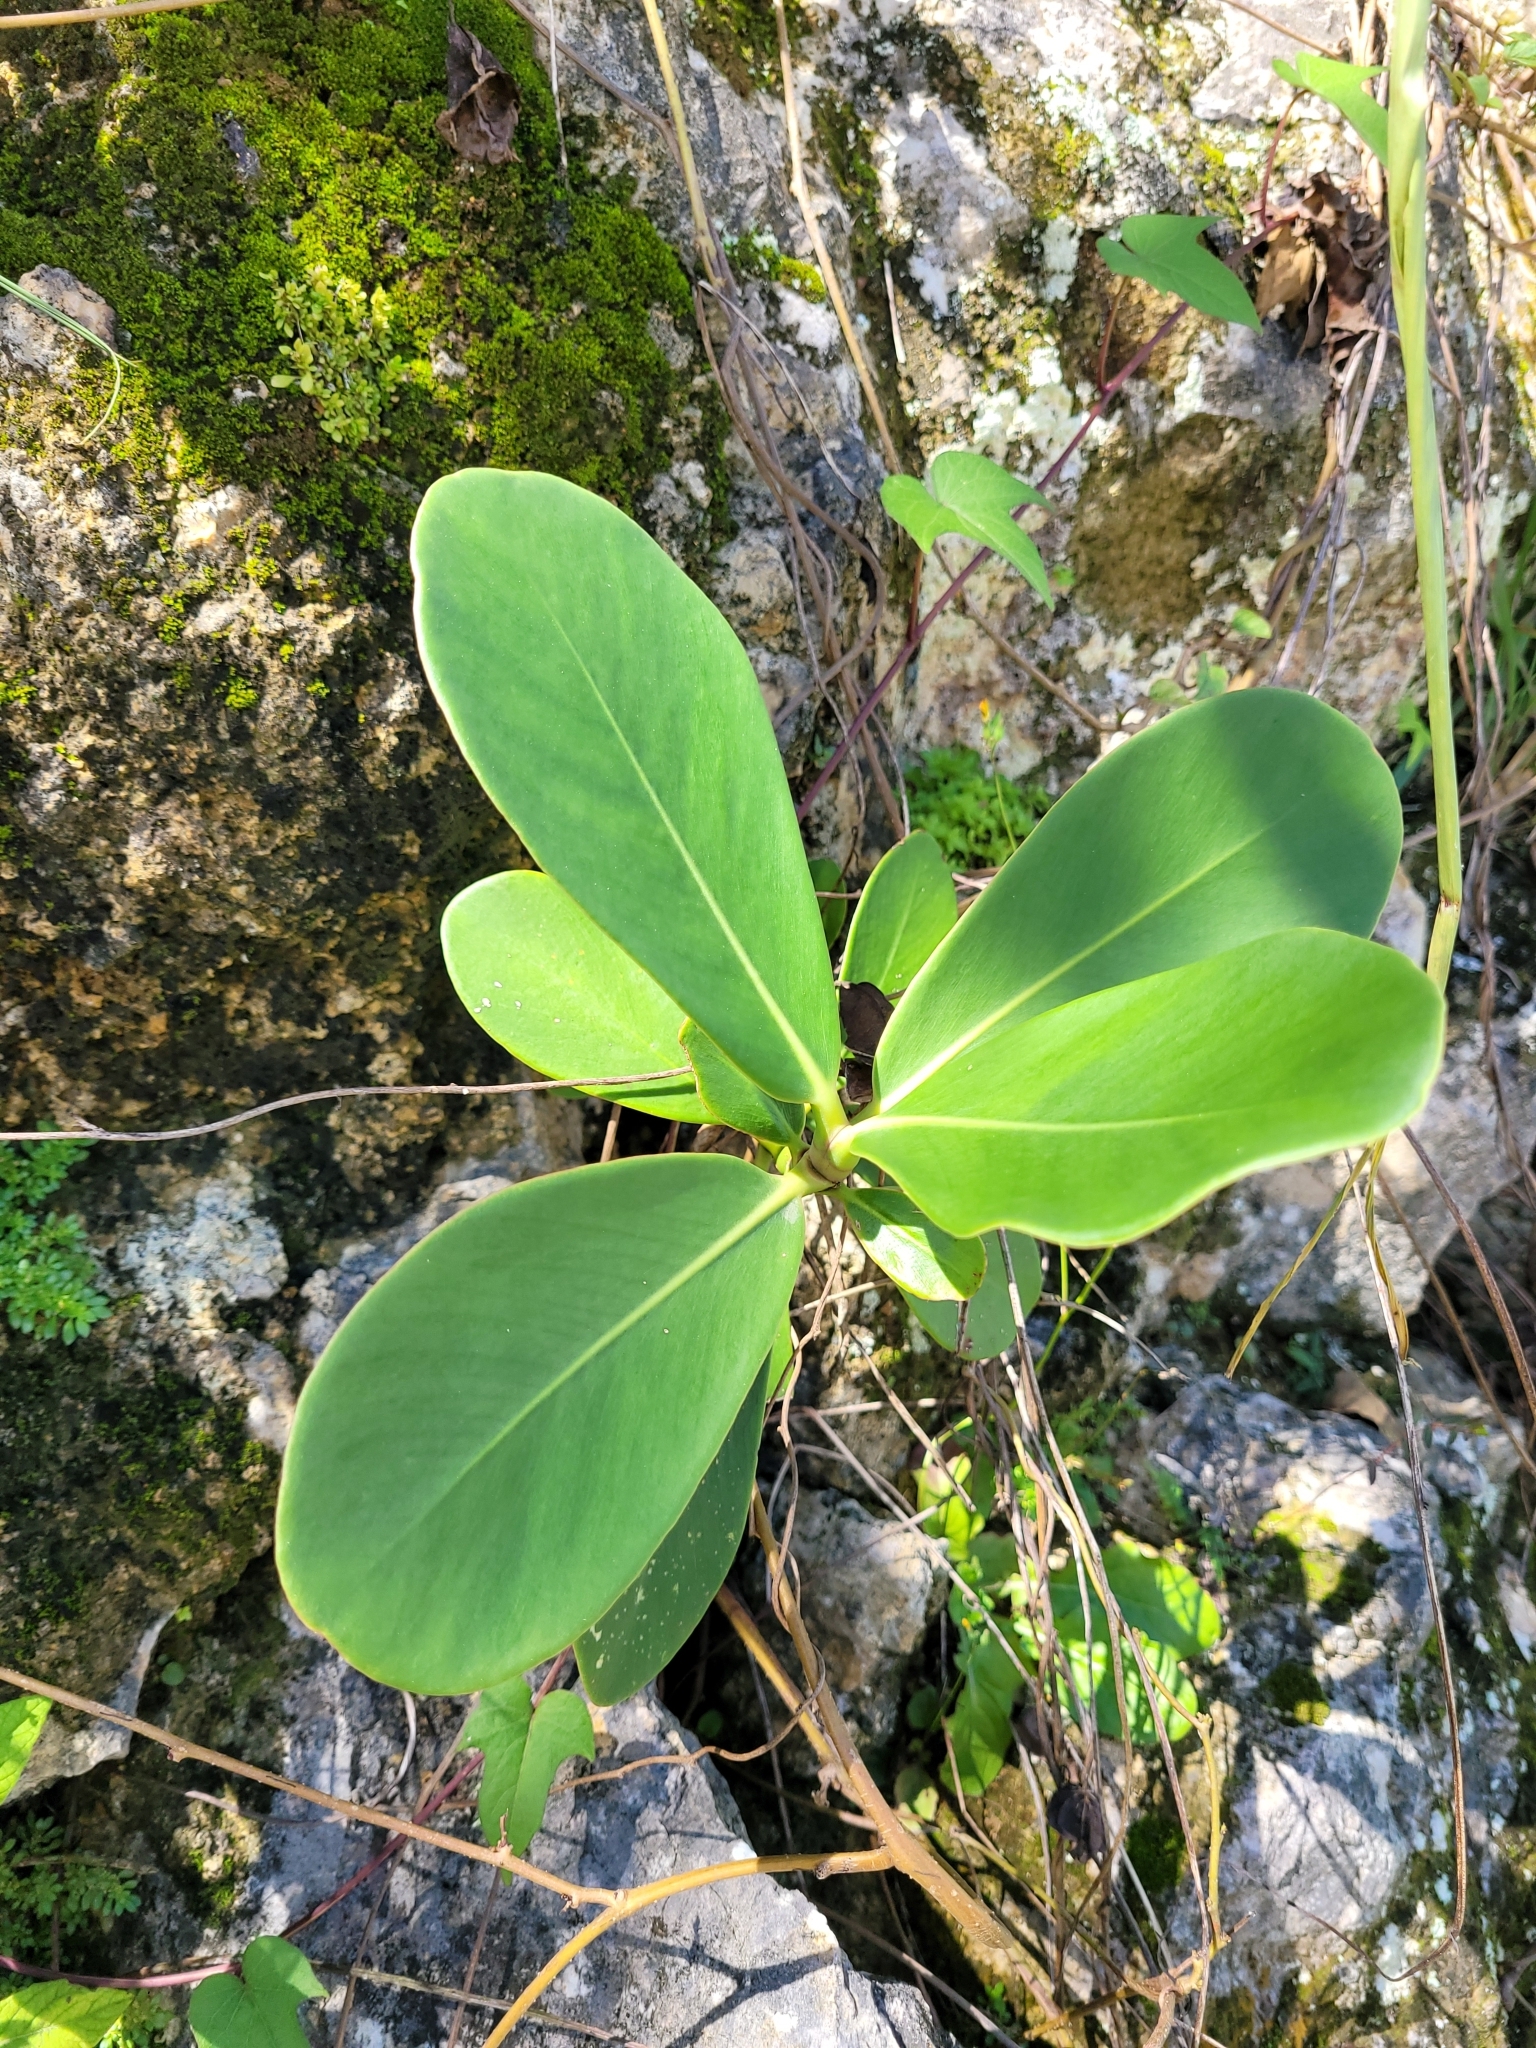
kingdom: Plantae
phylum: Tracheophyta
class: Magnoliopsida
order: Malpighiales
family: Clusiaceae
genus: Clusia
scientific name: Clusia rosea
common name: Scotch attorney
